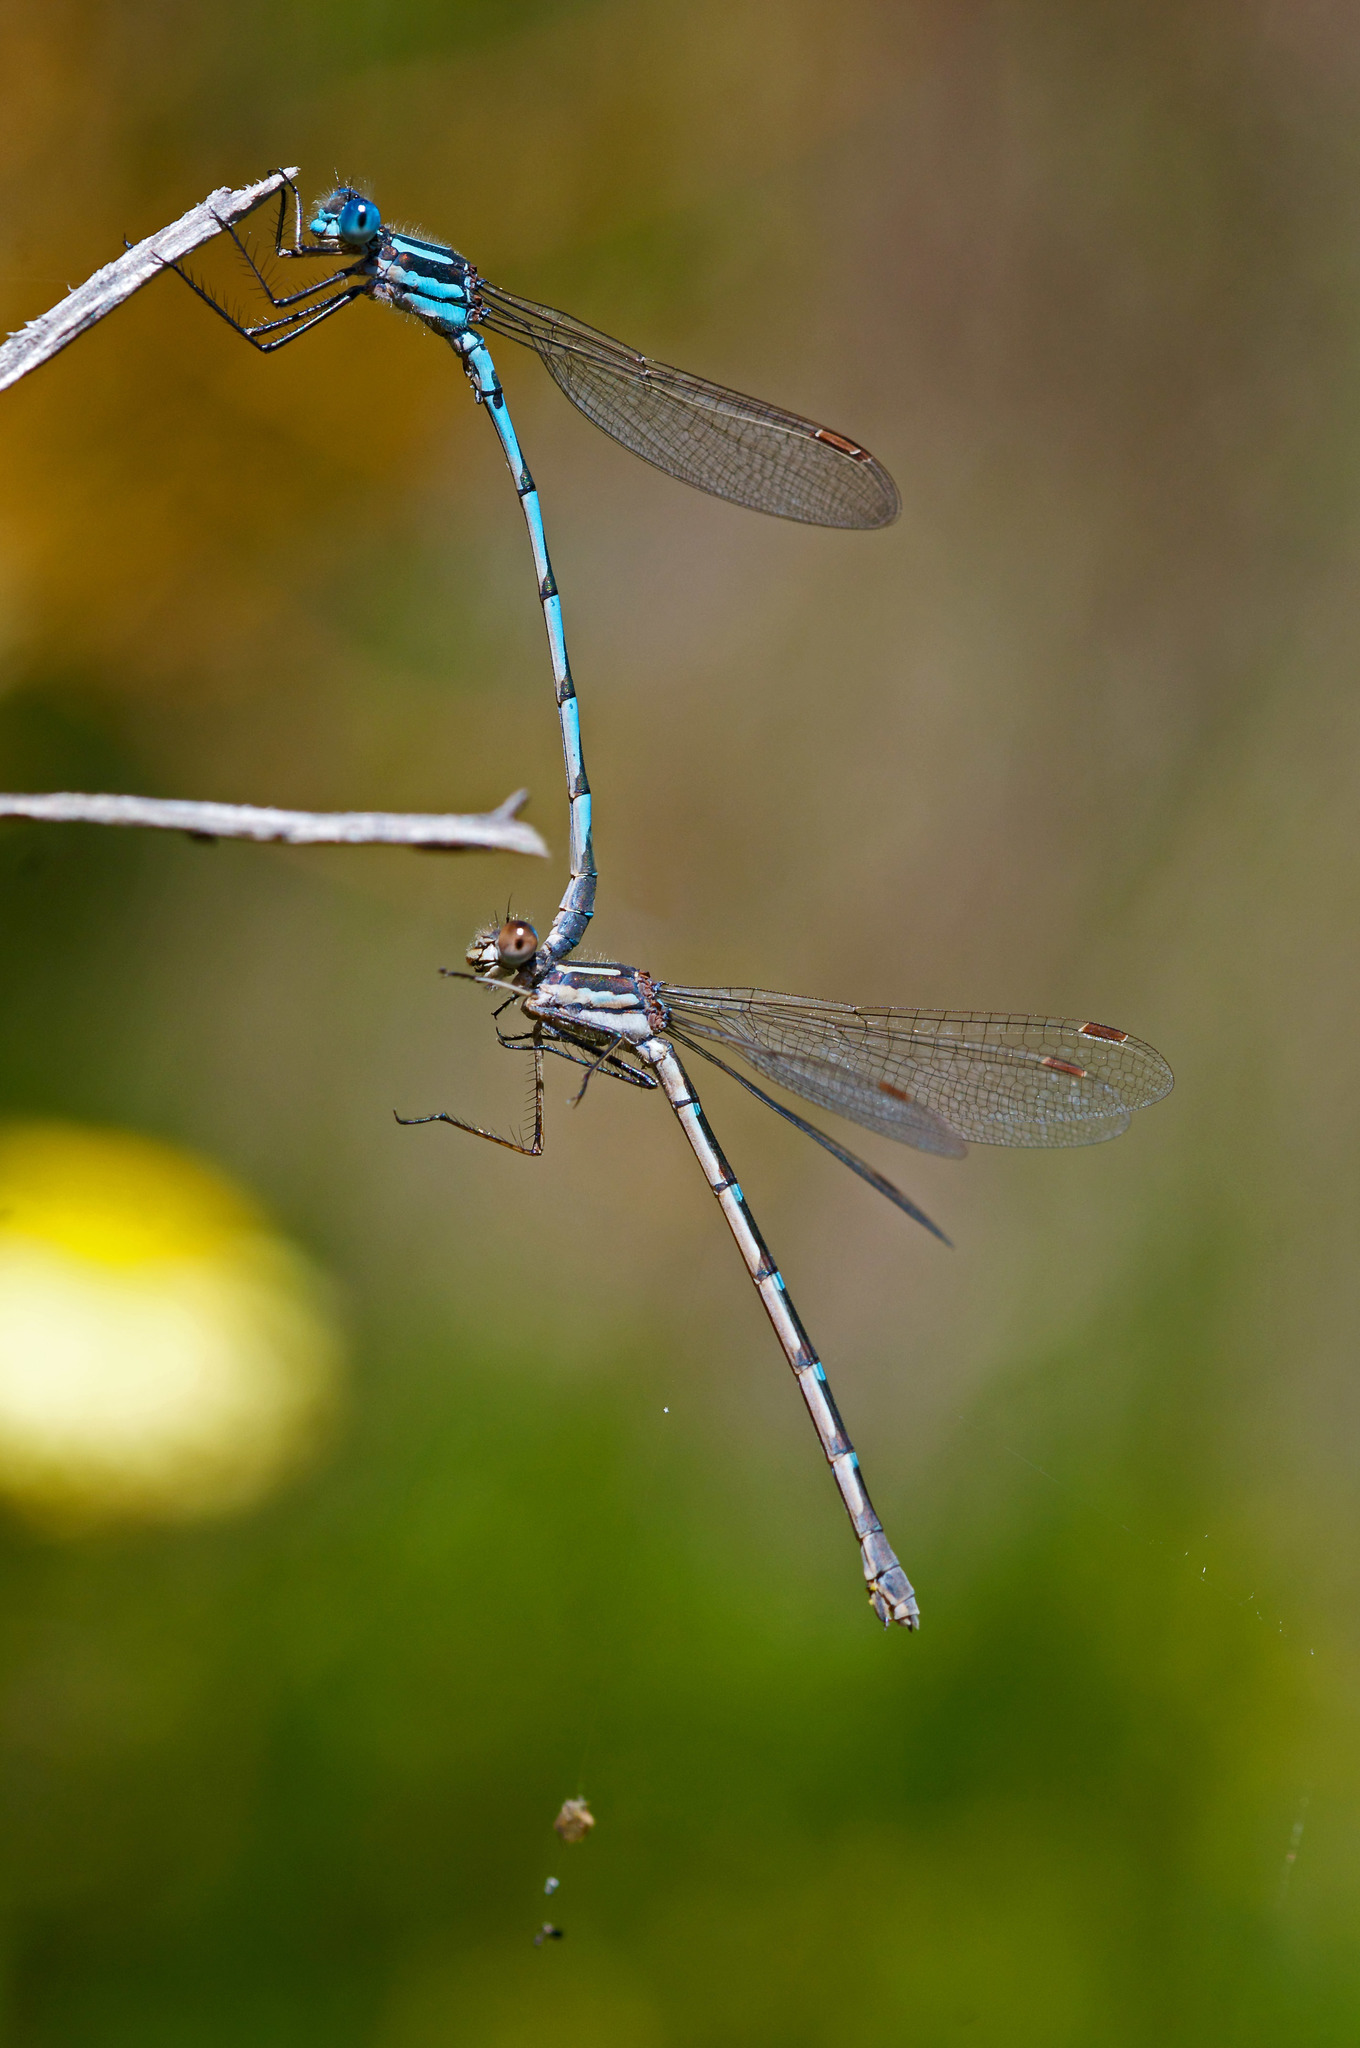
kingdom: Animalia
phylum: Arthropoda
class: Insecta
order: Odonata
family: Lestidae
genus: Austrolestes
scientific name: Austrolestes annulosus
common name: Blue ringtail
